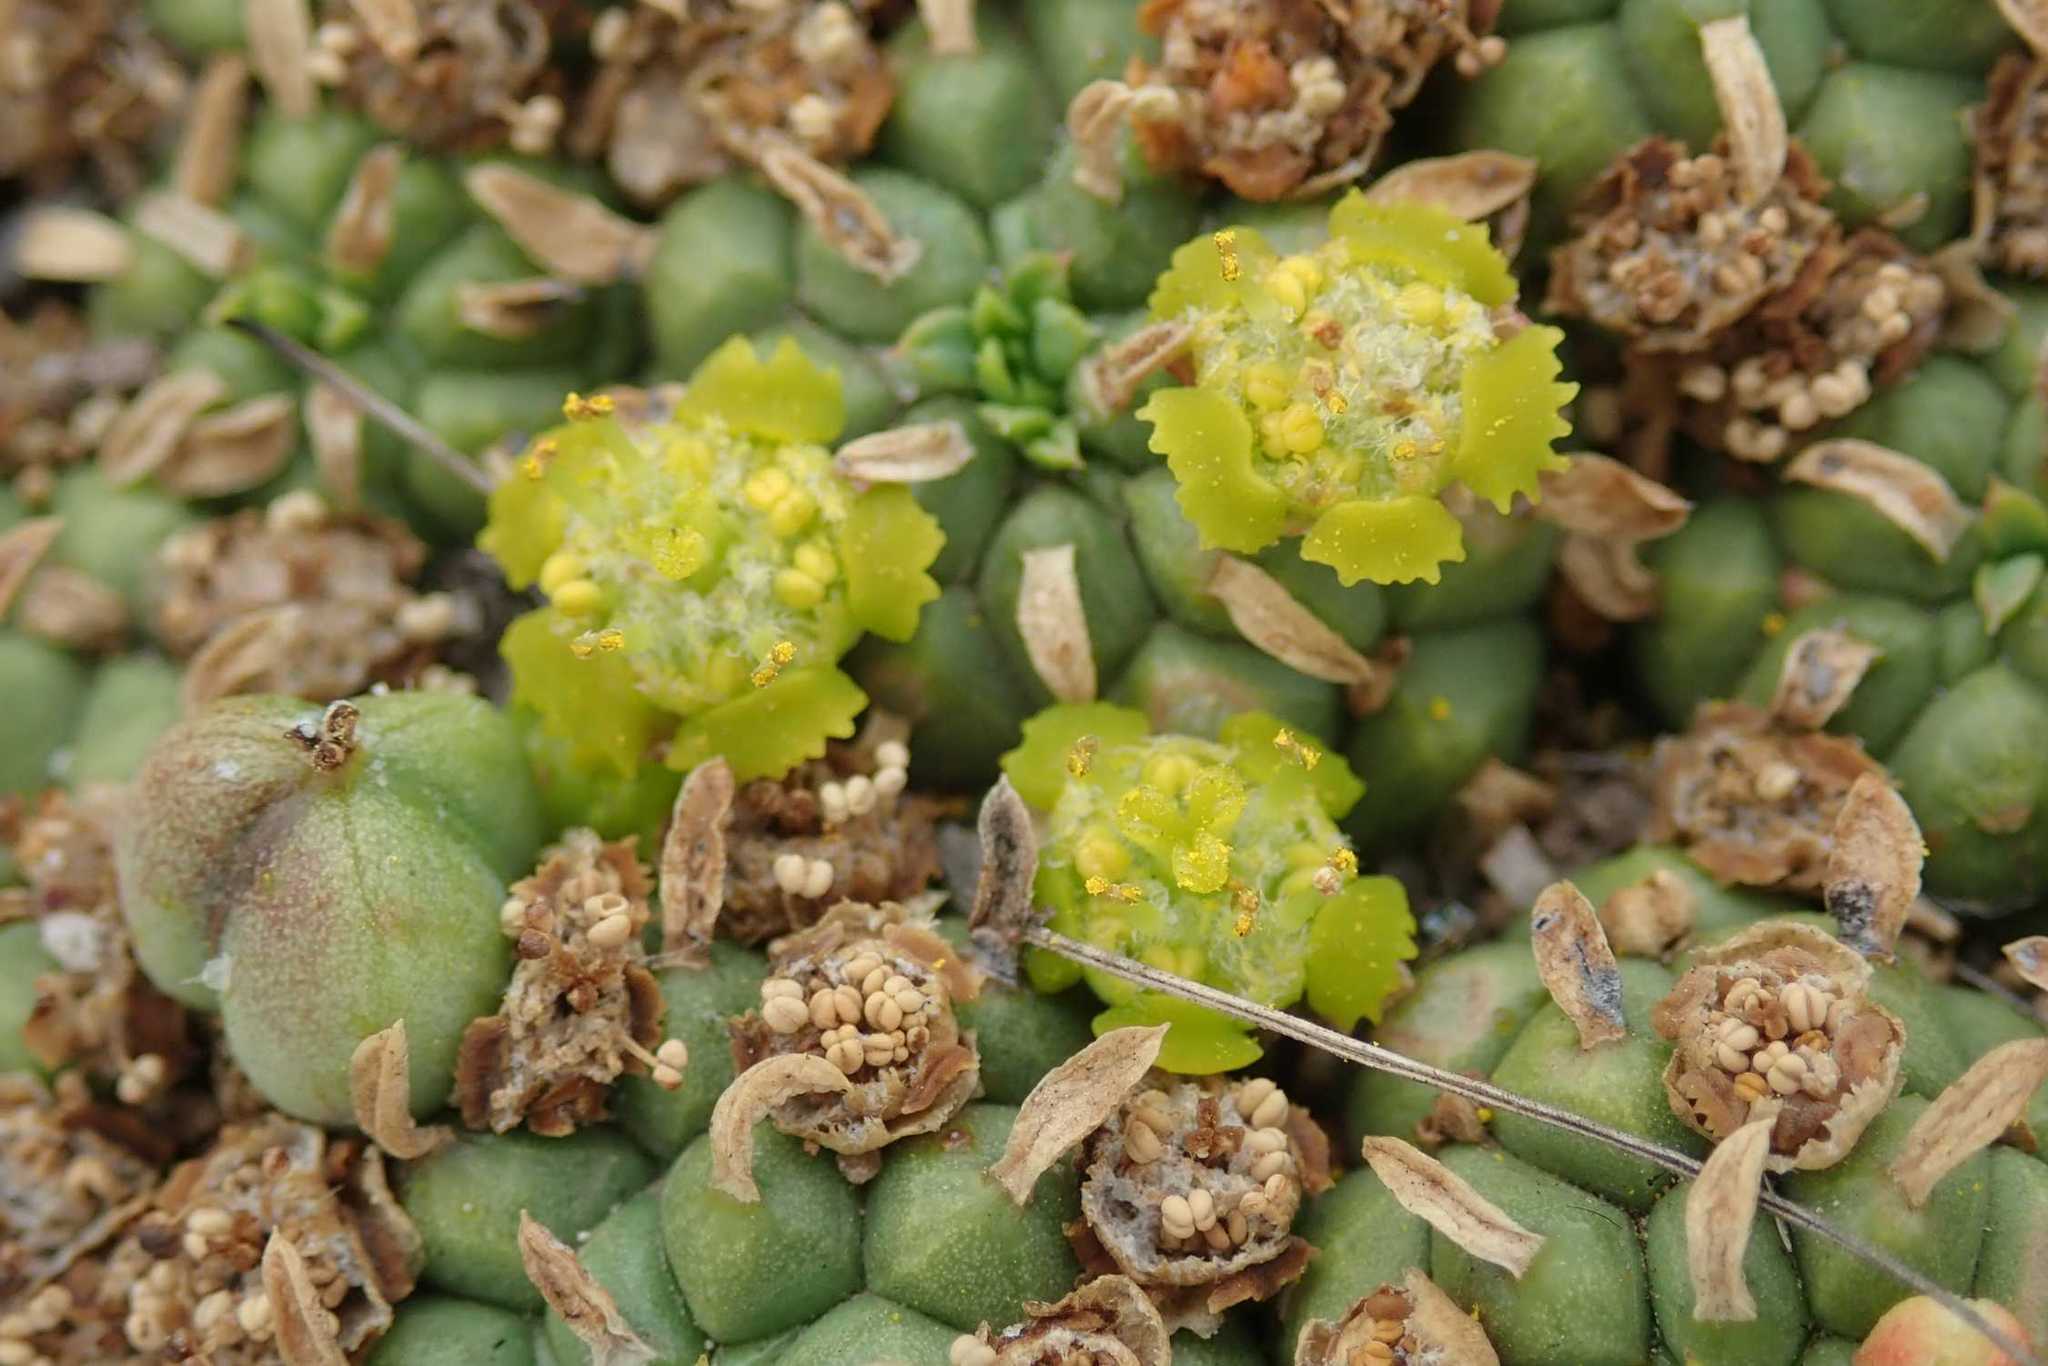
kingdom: Plantae
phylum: Tracheophyta
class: Magnoliopsida
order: Malpighiales
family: Euphorbiaceae
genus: Euphorbia
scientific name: Euphorbia clavarioides
